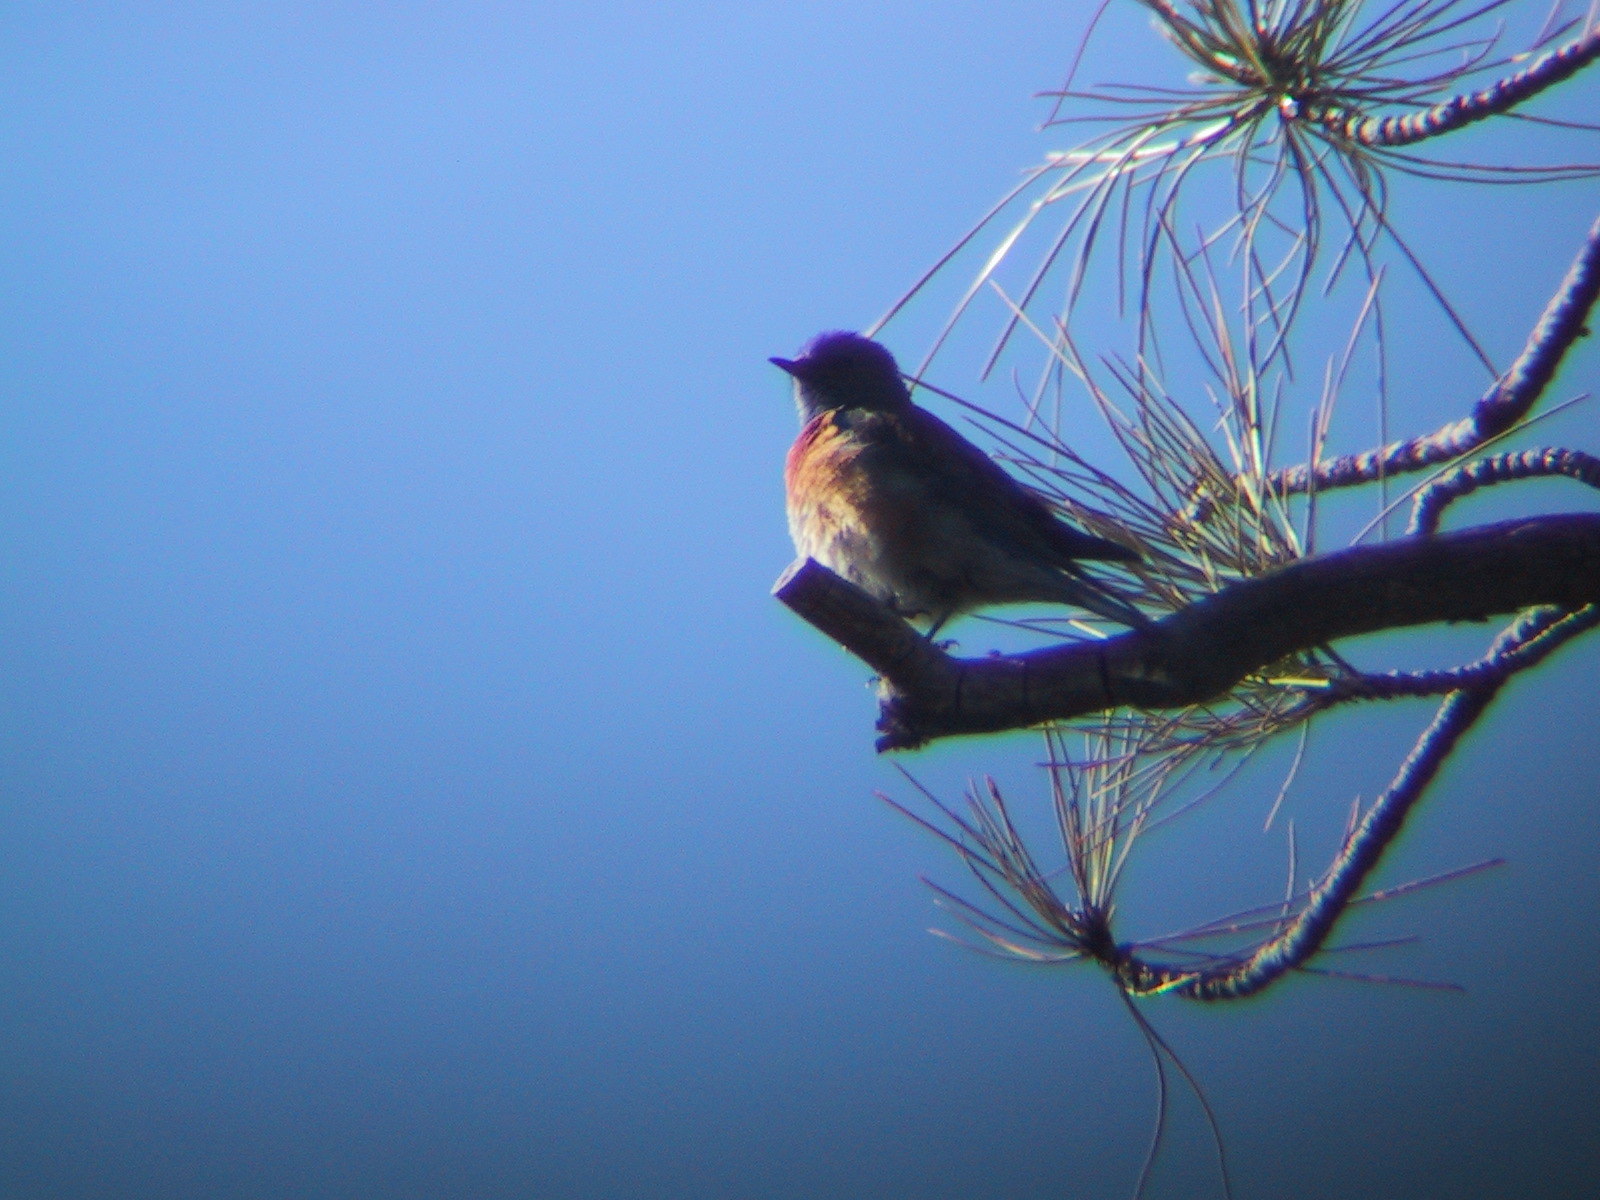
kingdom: Animalia
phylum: Chordata
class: Aves
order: Passeriformes
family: Turdidae
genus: Sialia
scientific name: Sialia mexicana
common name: Western bluebird
